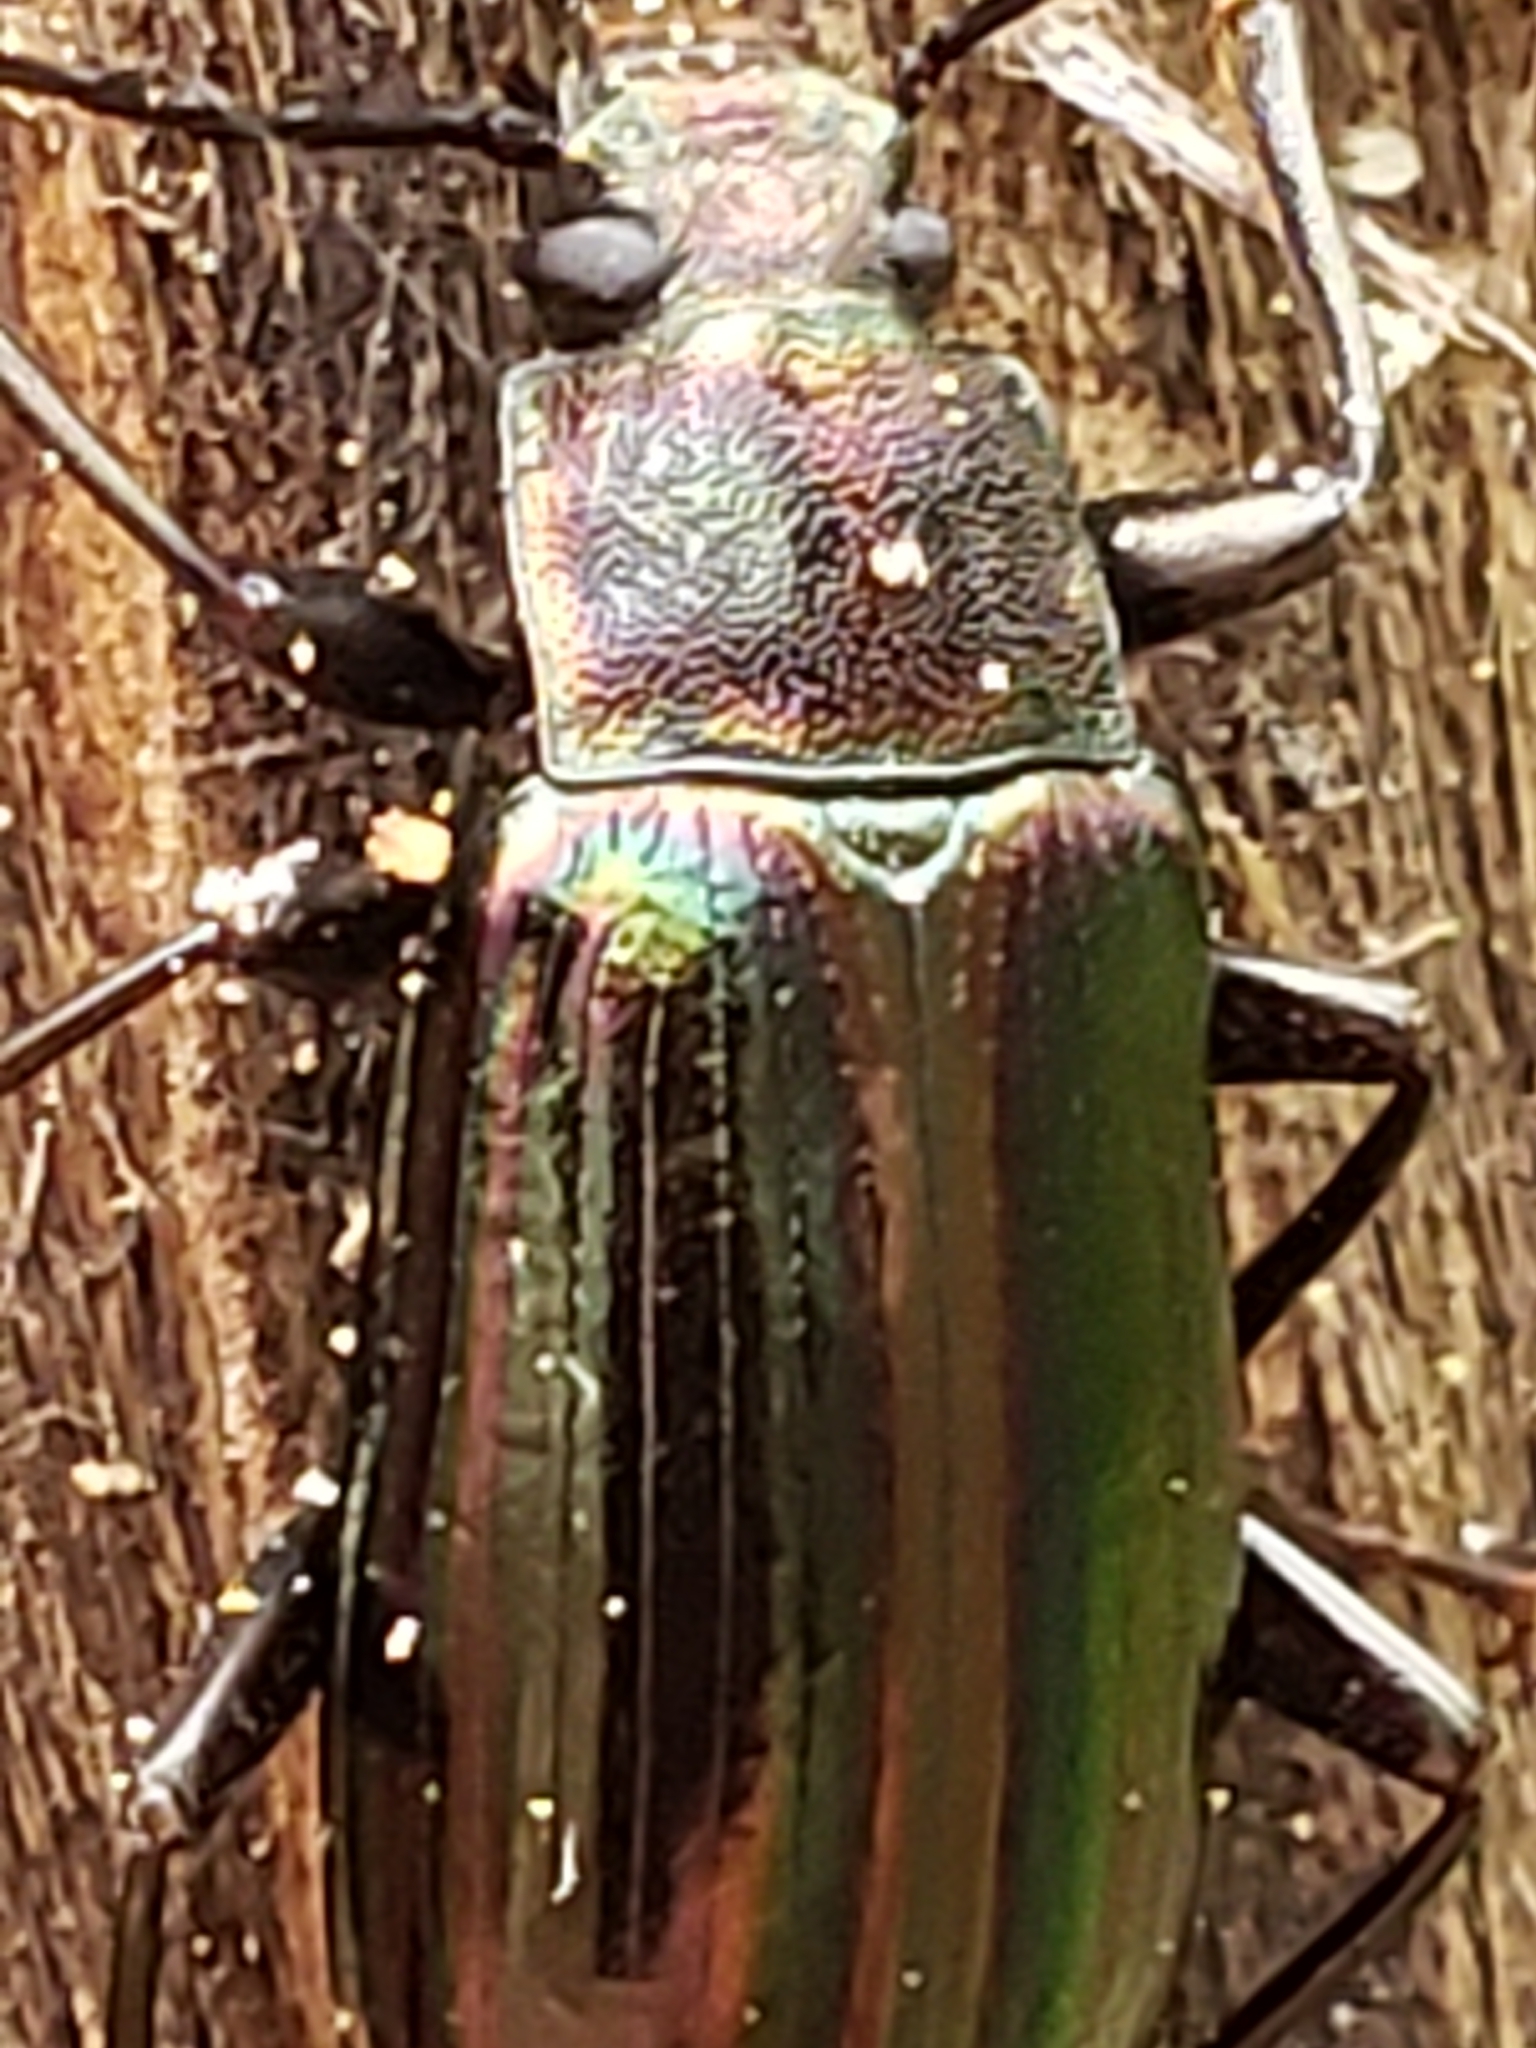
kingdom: Animalia
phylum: Arthropoda
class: Insecta
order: Coleoptera
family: Tenebrionidae
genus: Tarpela
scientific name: Tarpela micans
